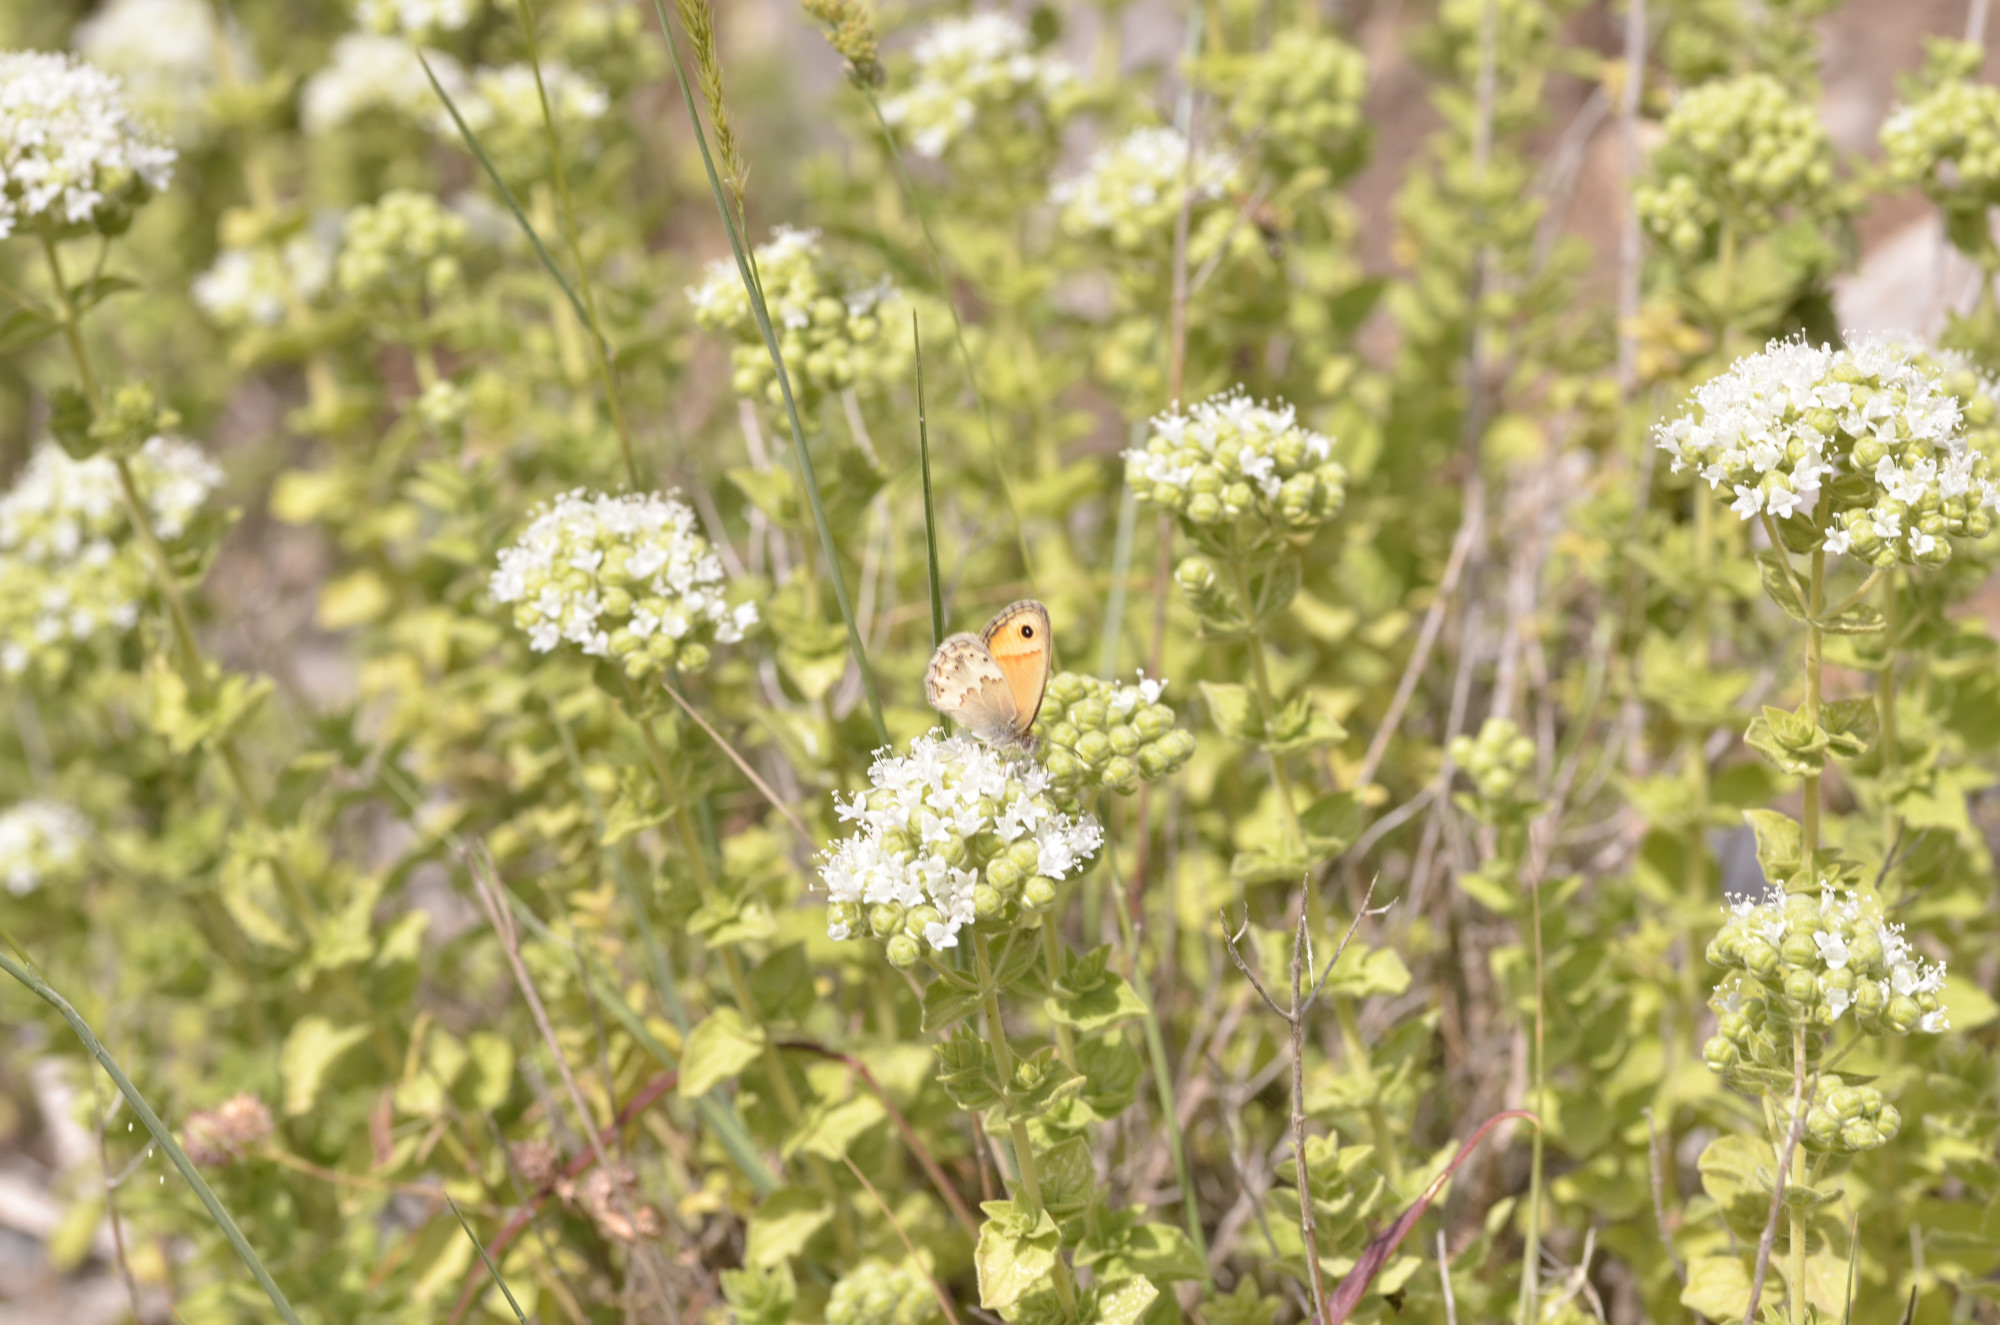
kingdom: Animalia
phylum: Arthropoda
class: Insecta
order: Lepidoptera
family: Nymphalidae
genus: Coenonympha
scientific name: Coenonympha thyrsis
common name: Cretan small heath
